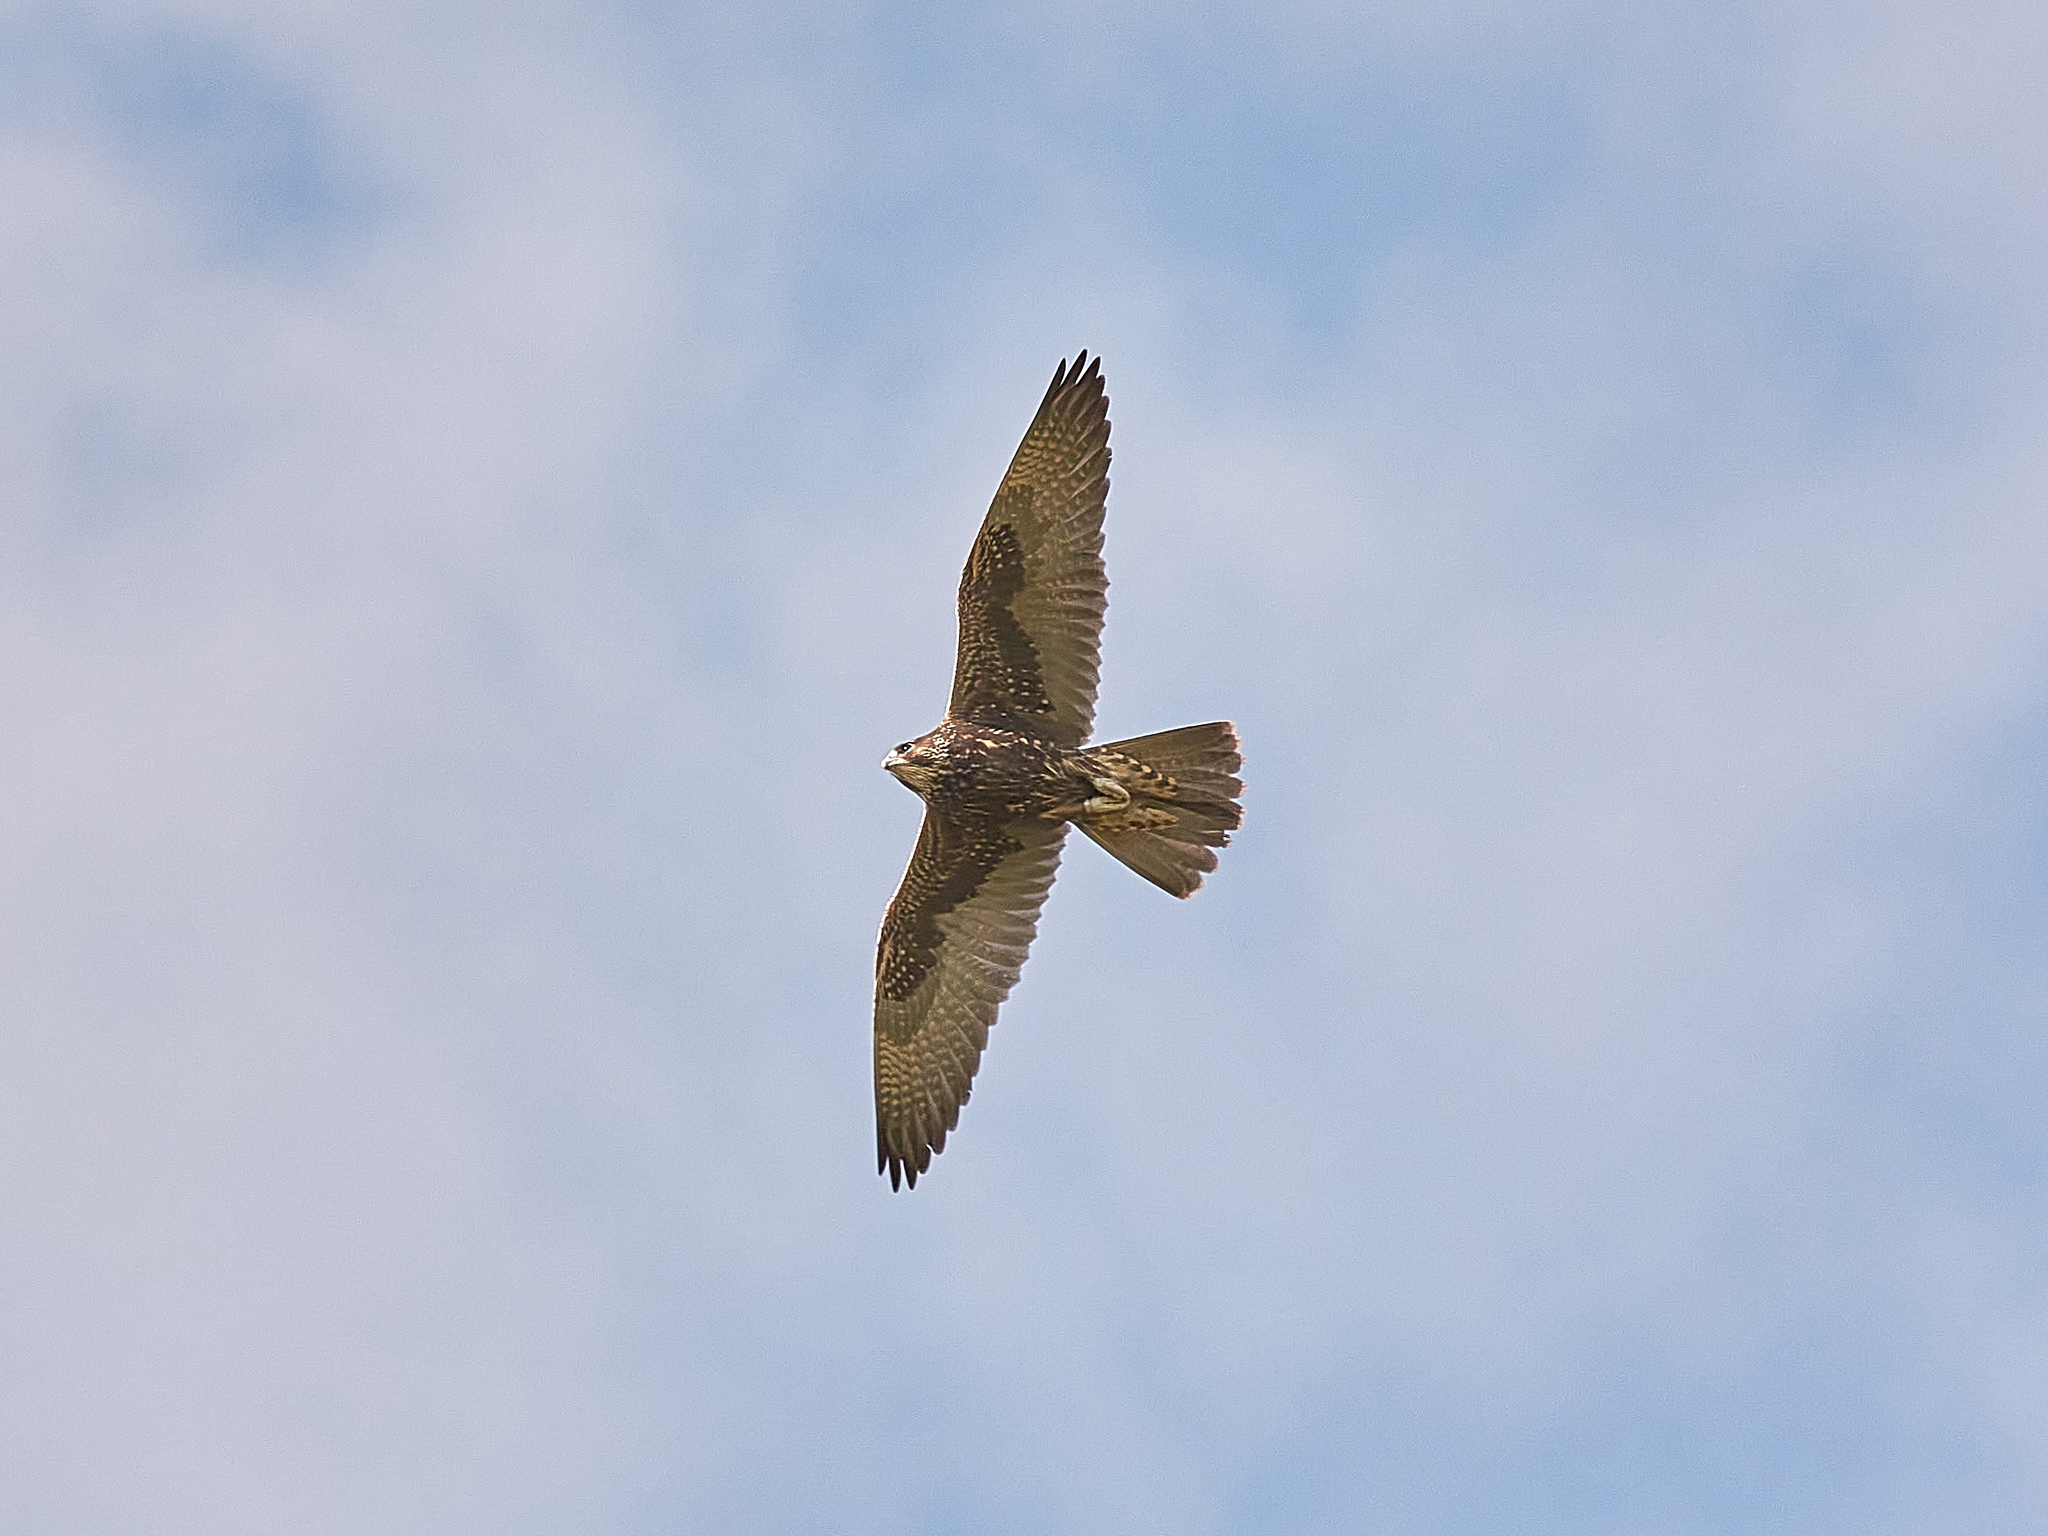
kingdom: Animalia
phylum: Chordata
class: Aves
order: Falconiformes
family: Falconidae
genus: Falco
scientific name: Falco cherrug
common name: Saker falcon
